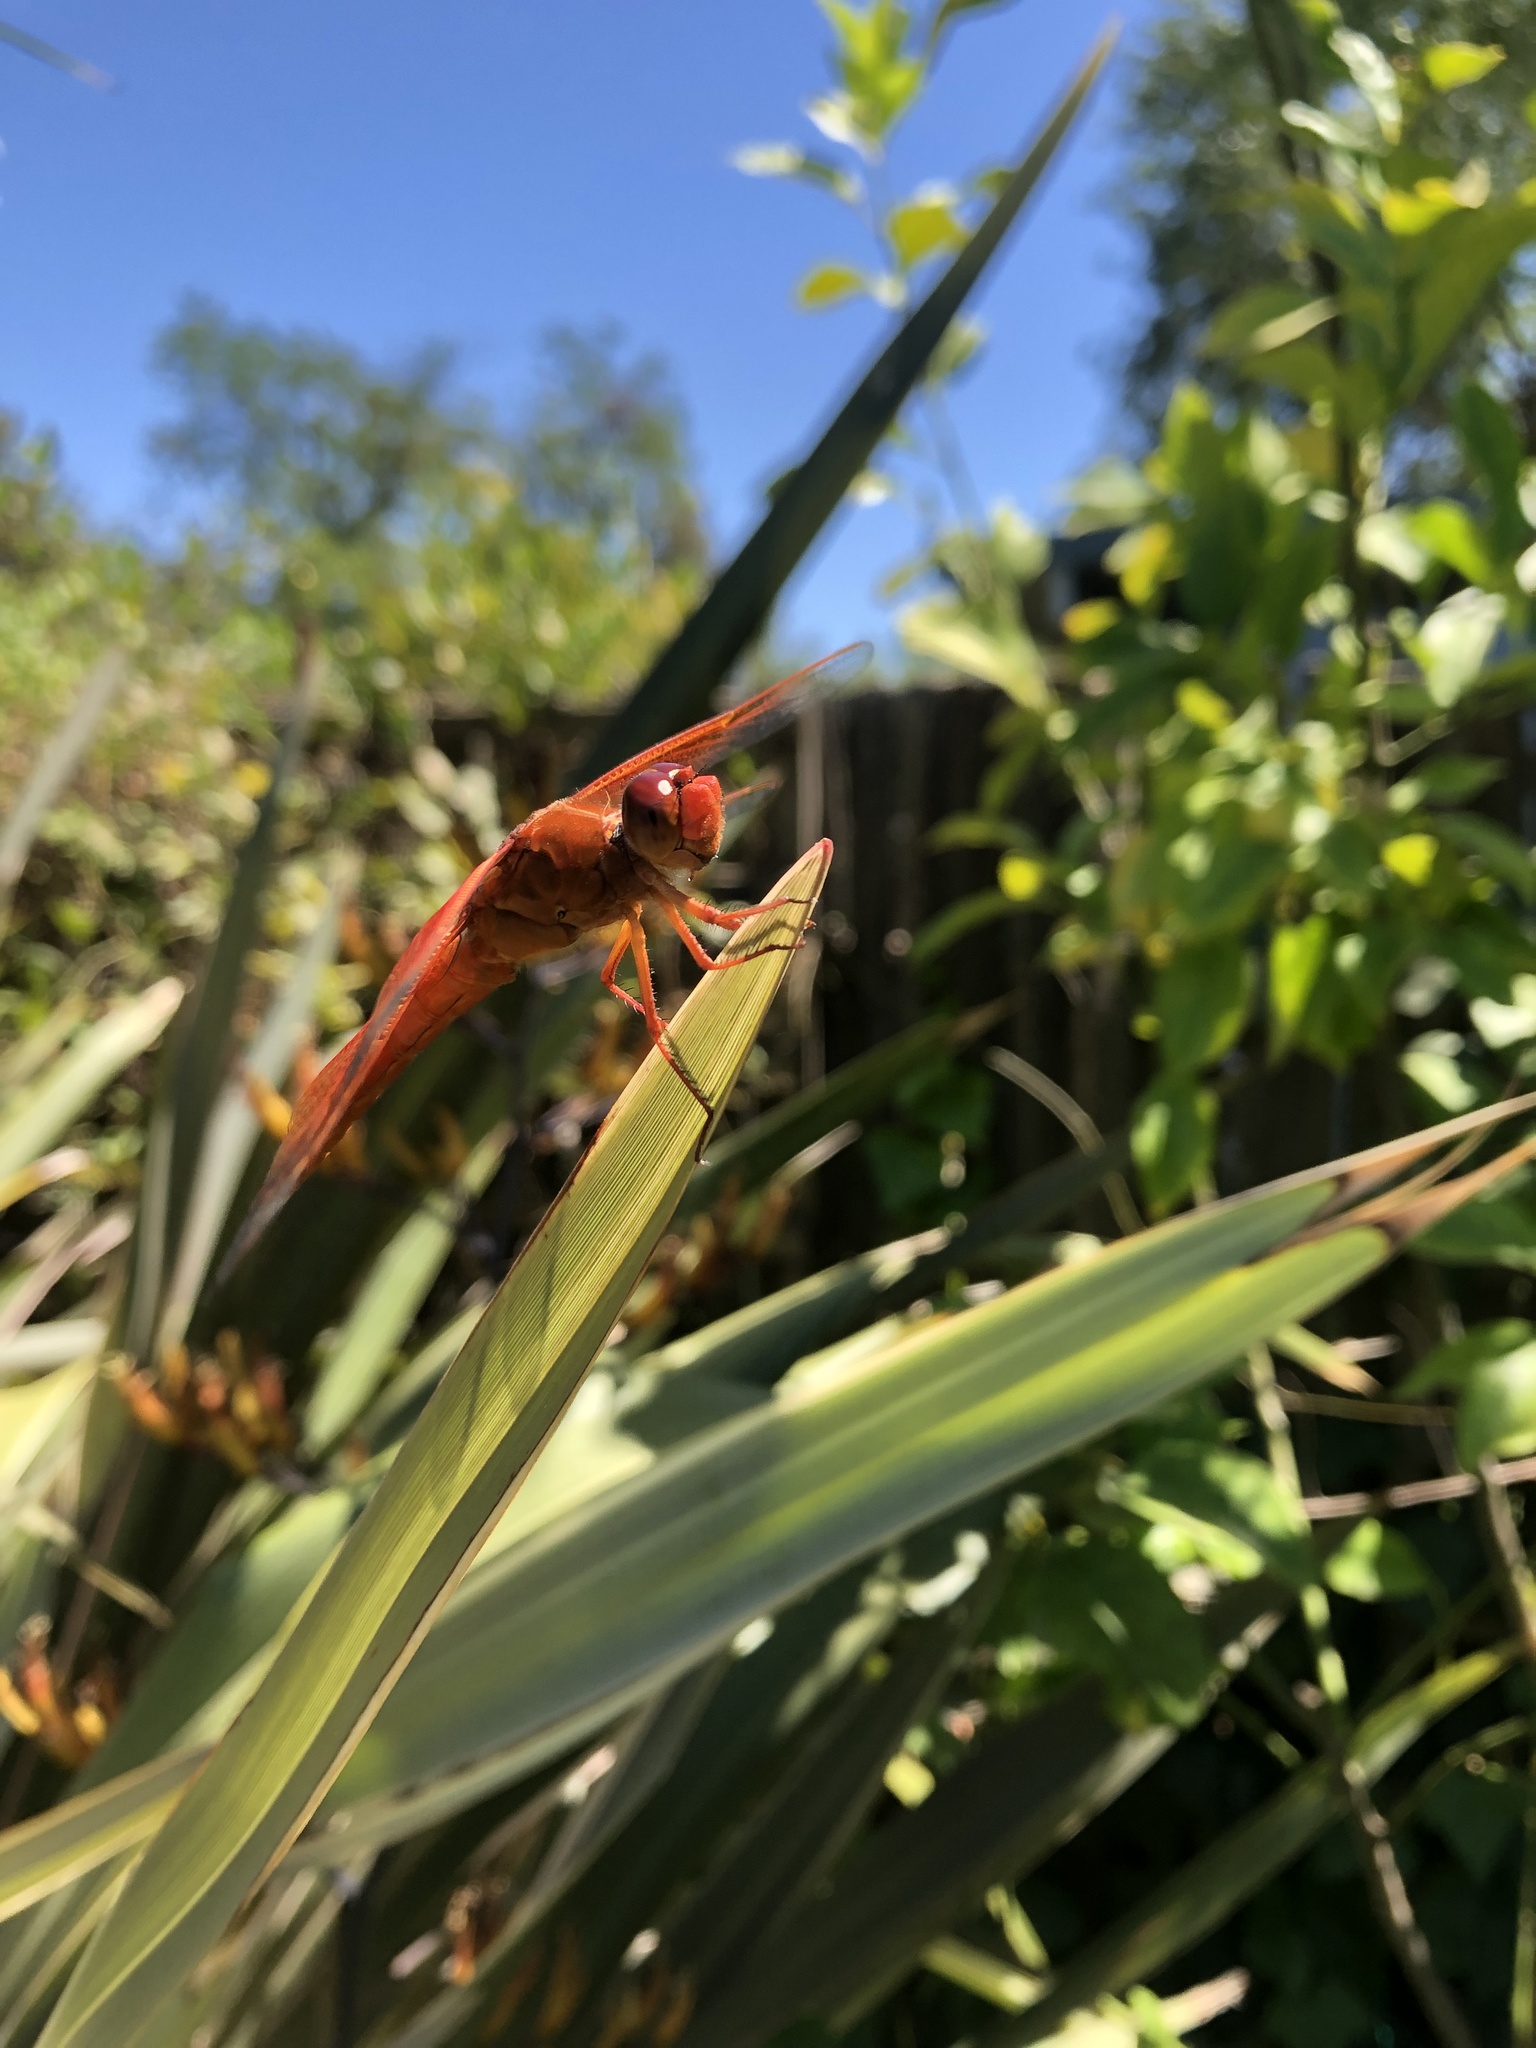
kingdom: Animalia
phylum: Arthropoda
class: Insecta
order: Odonata
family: Libellulidae
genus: Libellula
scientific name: Libellula saturata
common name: Flame skimmer
